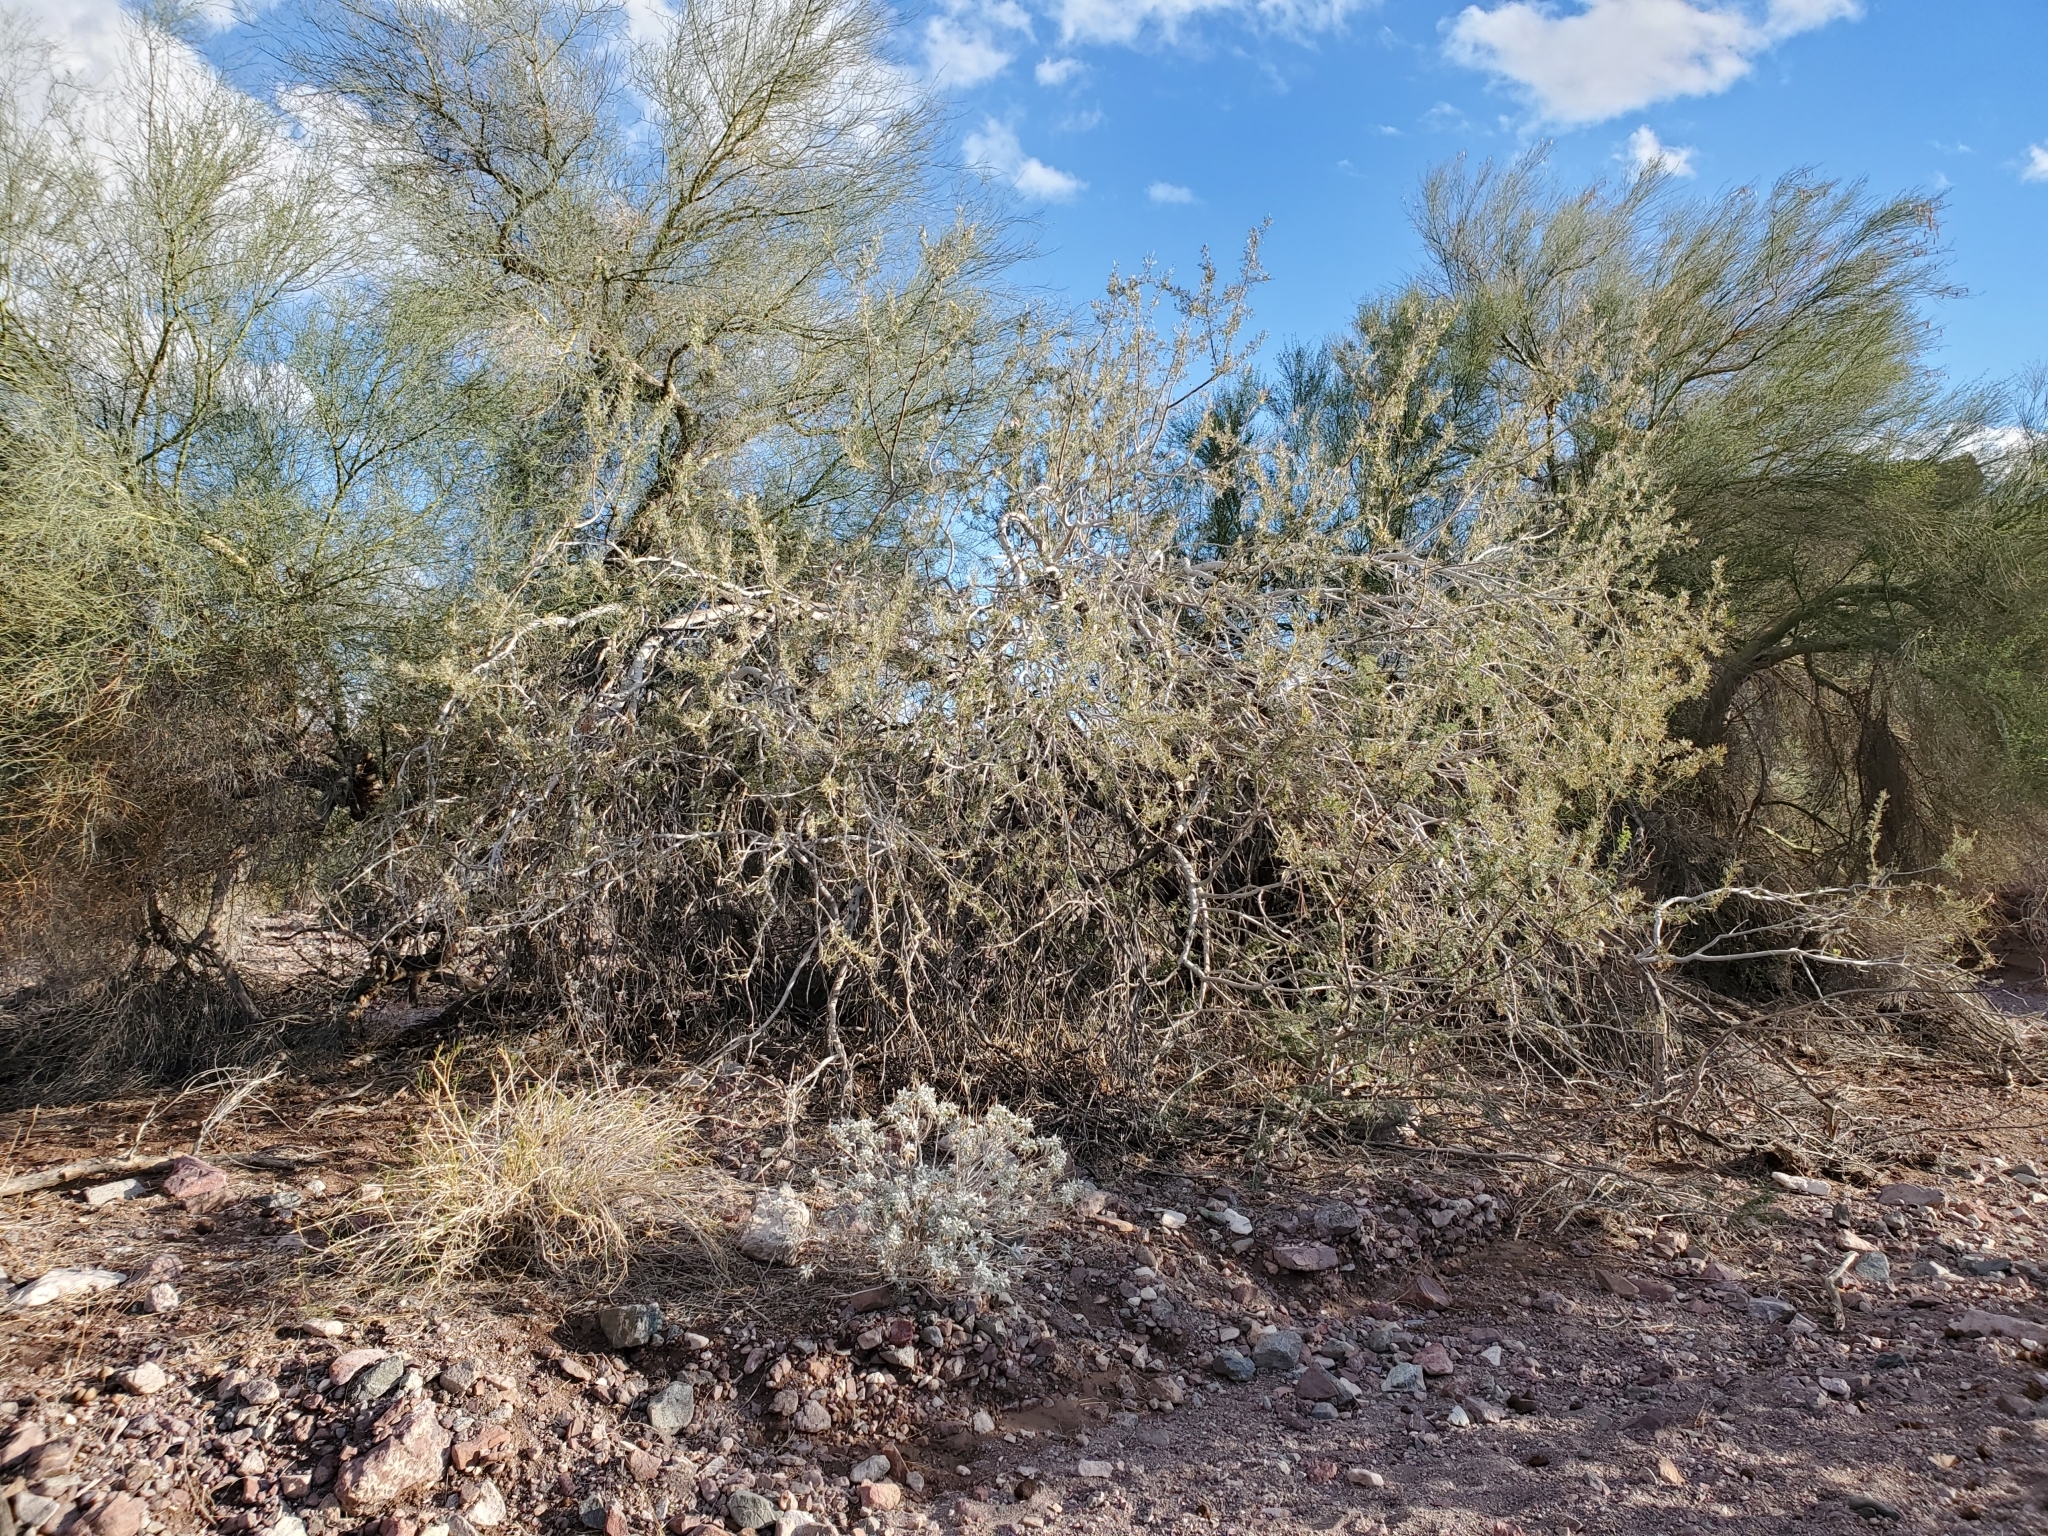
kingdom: Plantae
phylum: Tracheophyta
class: Magnoliopsida
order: Fabales
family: Fabaceae
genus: Olneya
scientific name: Olneya tesota
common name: Desert ironwood
